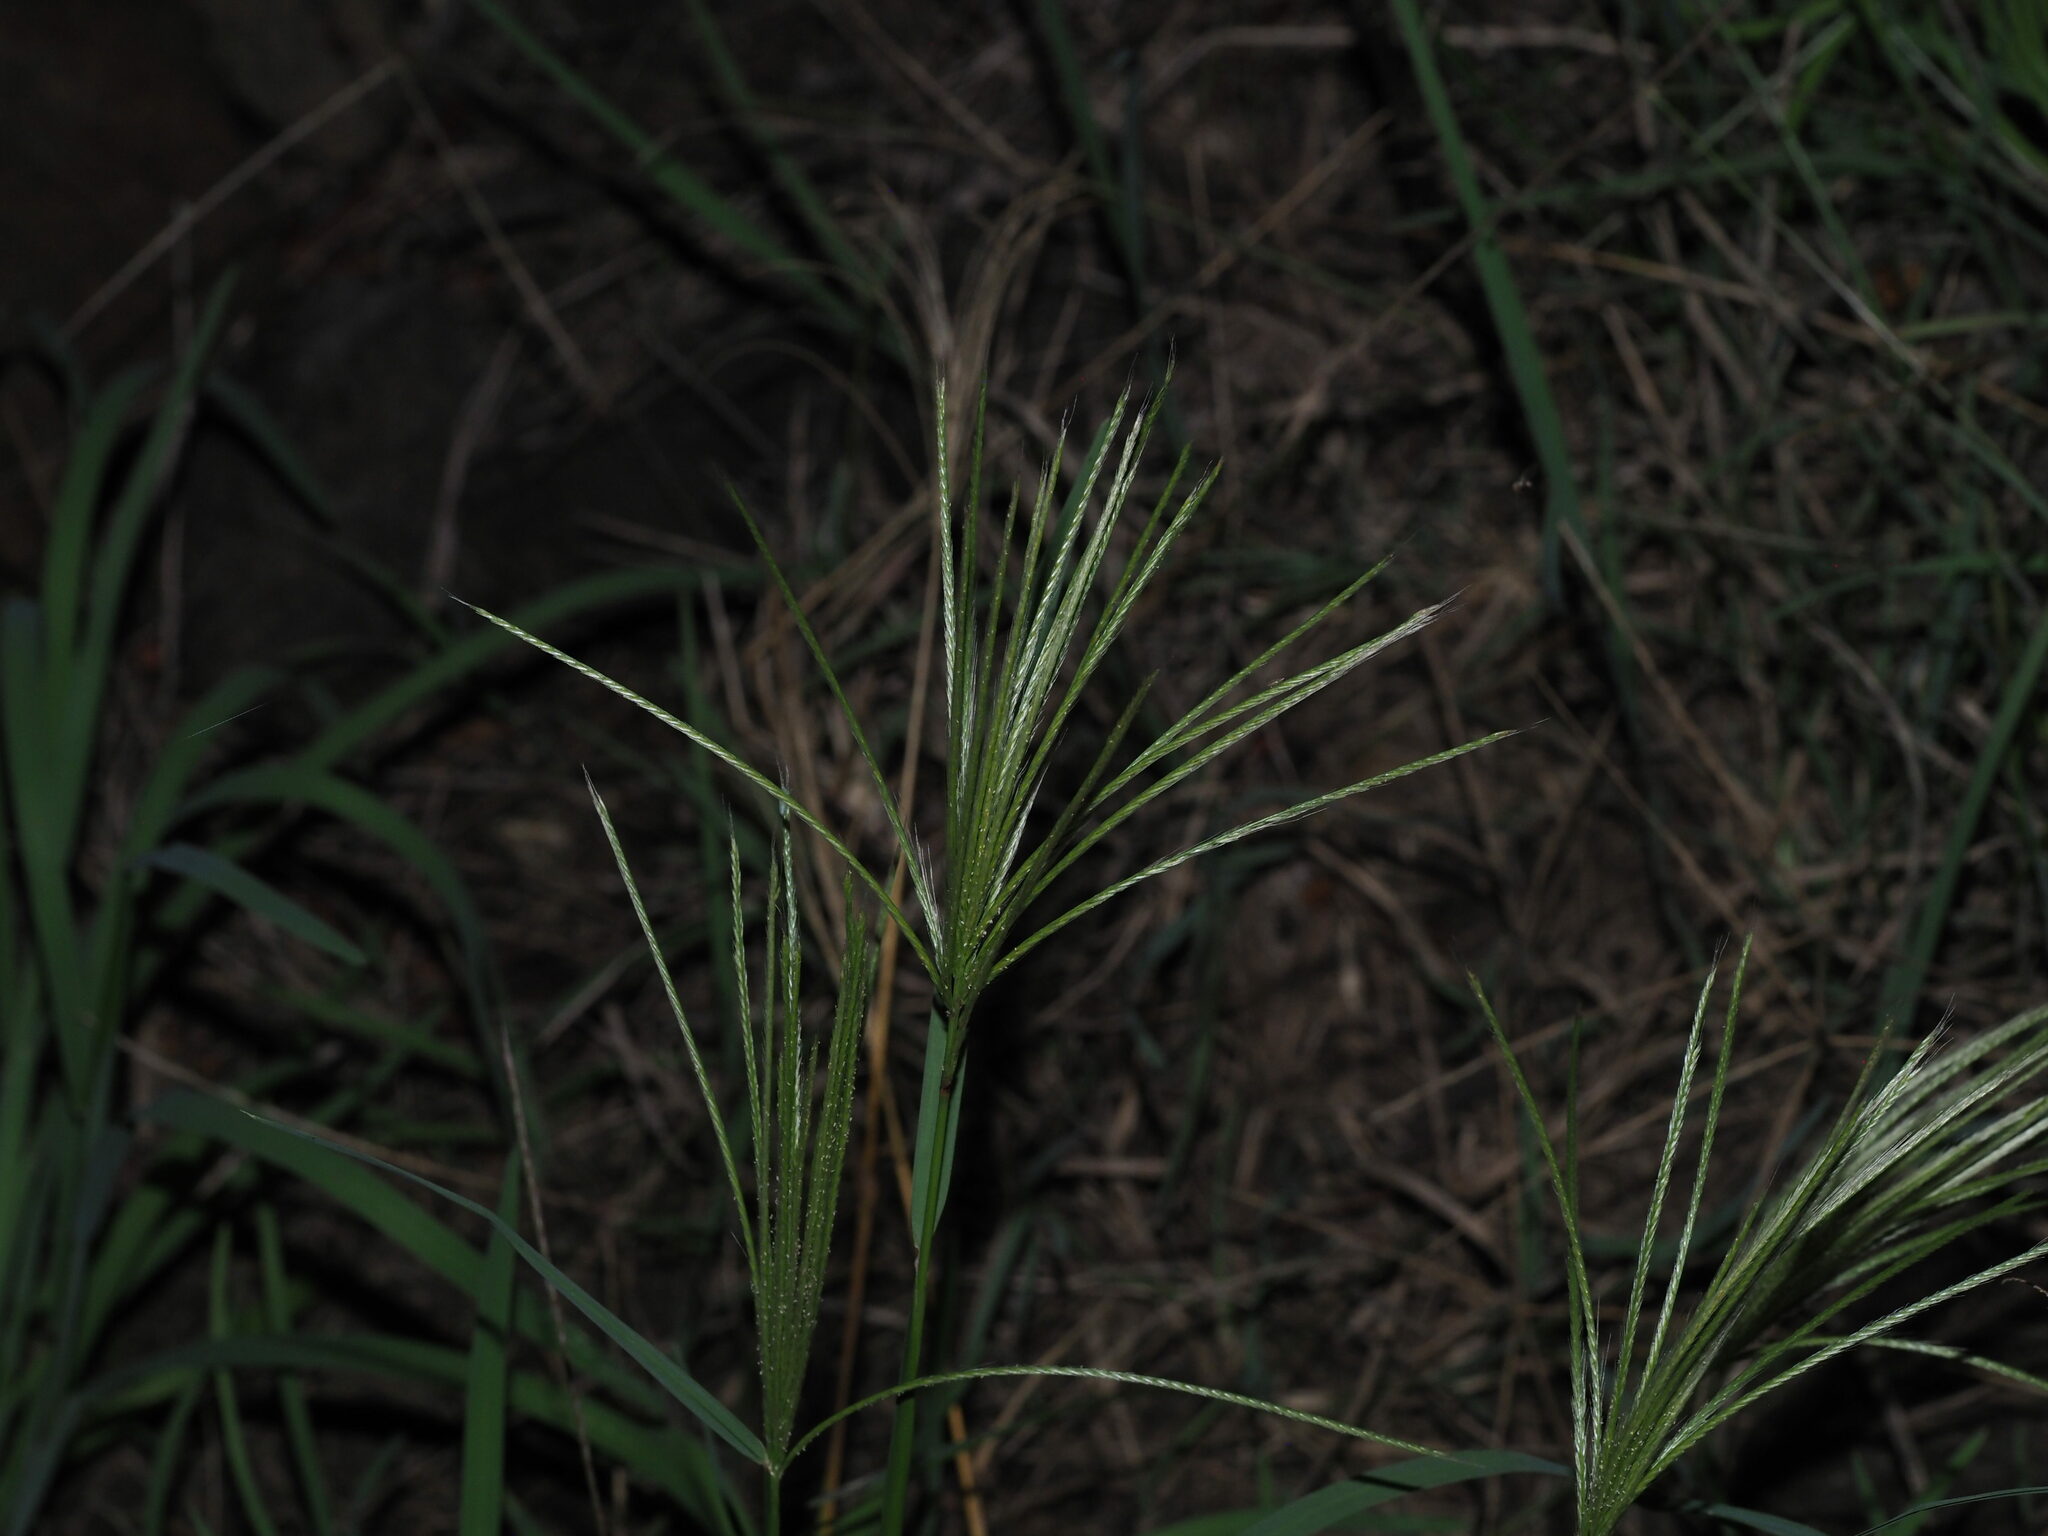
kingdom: Plantae
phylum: Tracheophyta
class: Liliopsida
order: Poales
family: Poaceae
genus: Chloris
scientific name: Chloris radiata
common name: Radiate fingergrass
